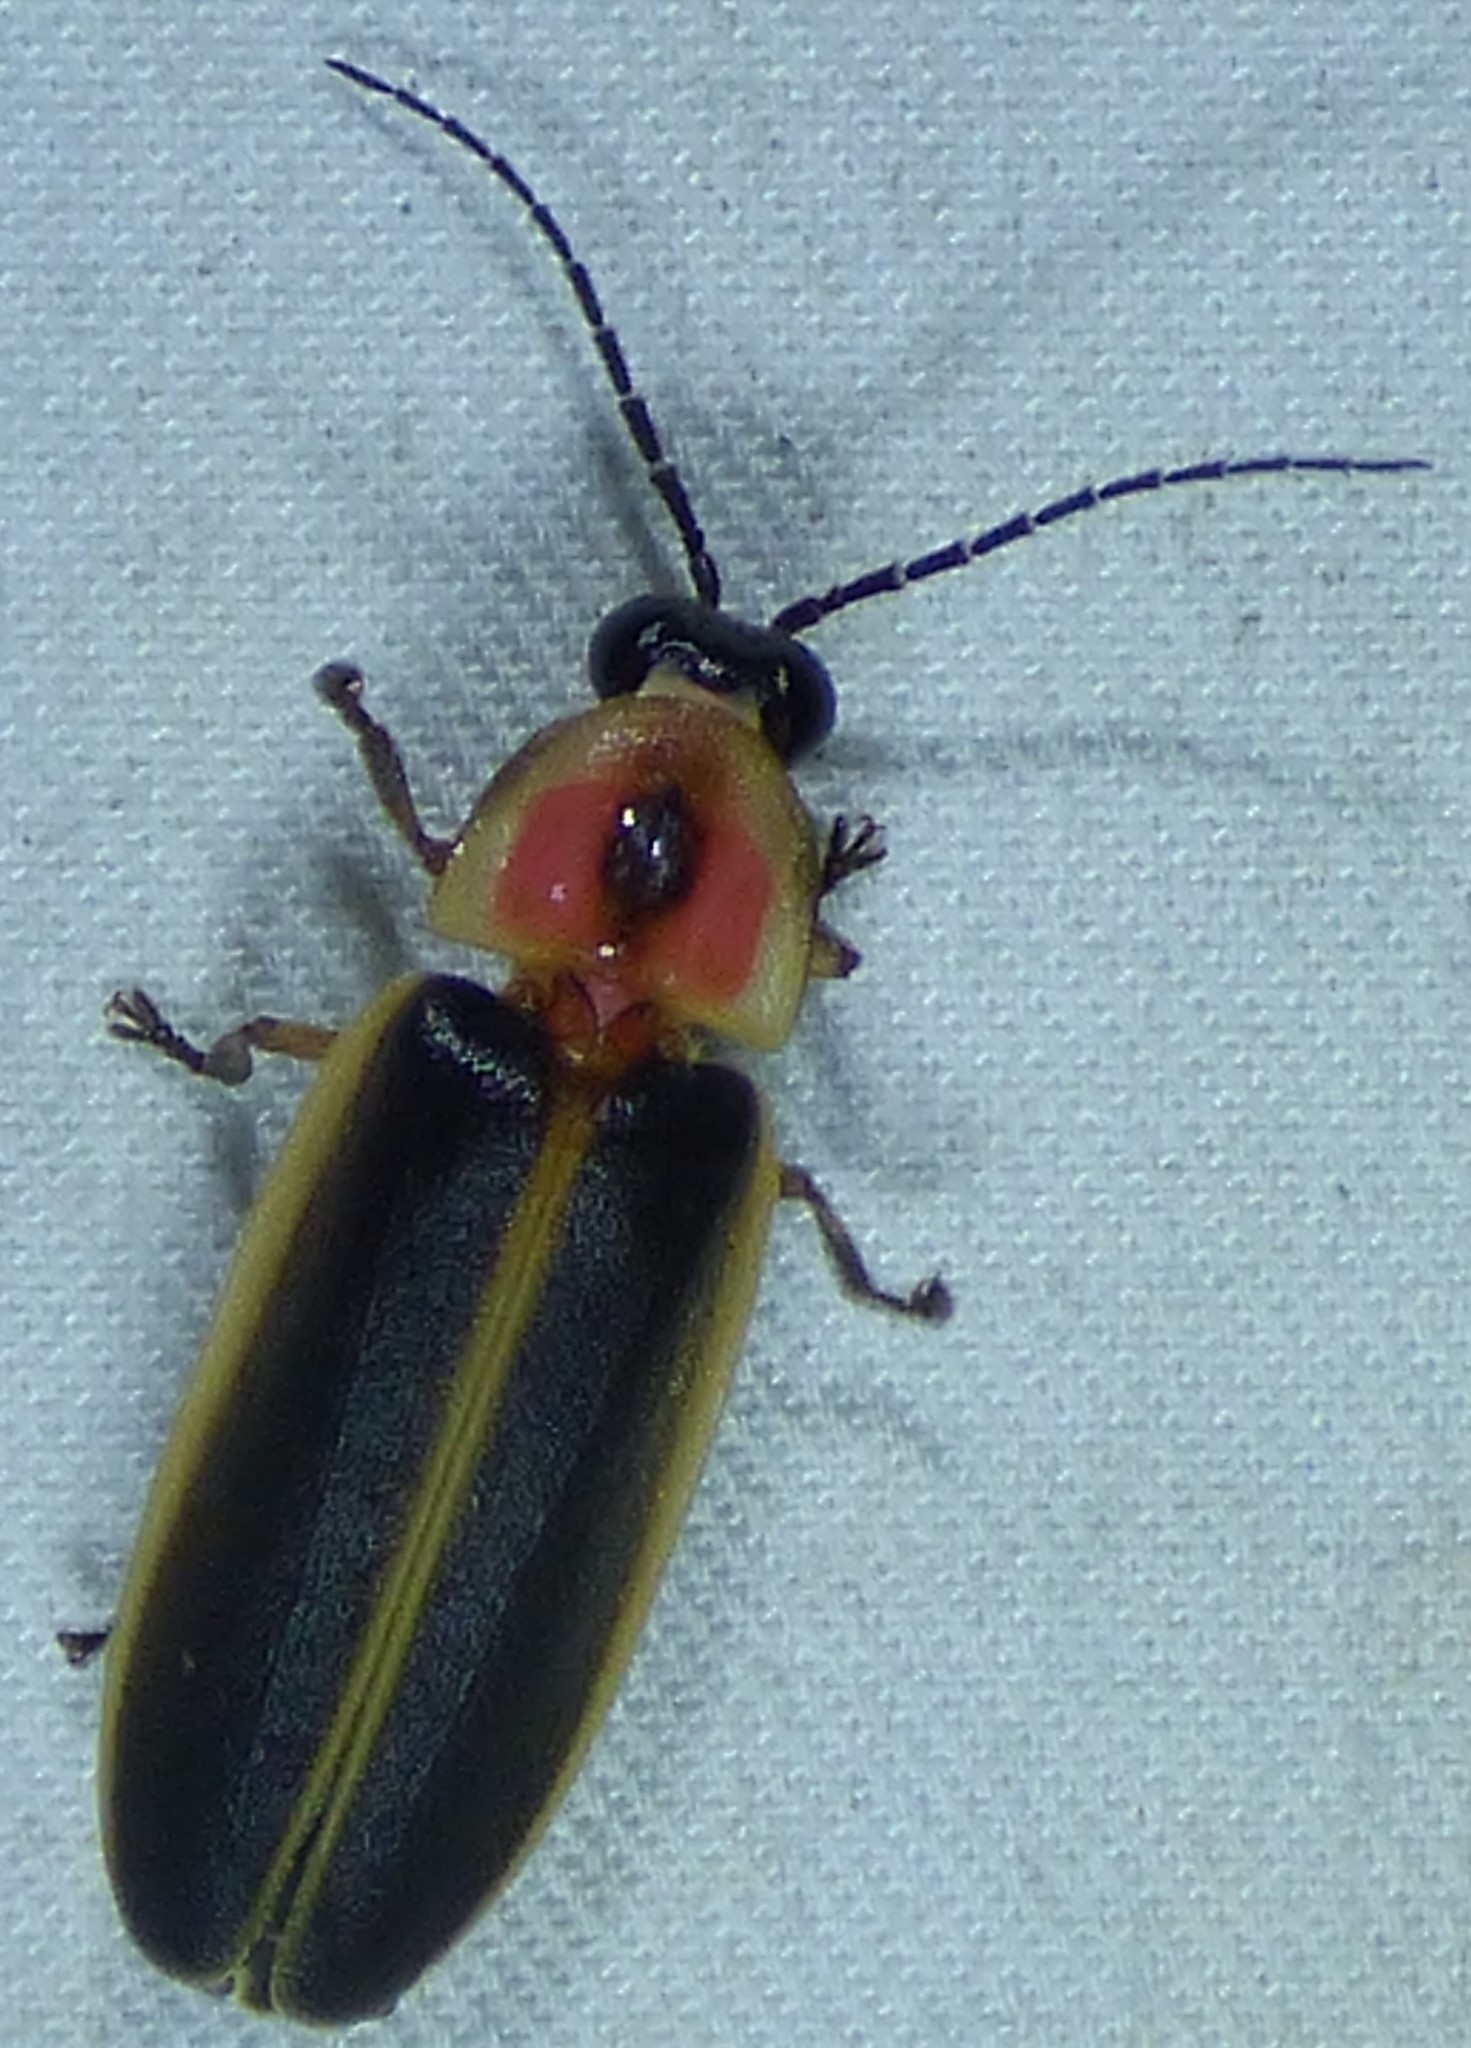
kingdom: Animalia
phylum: Arthropoda
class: Insecta
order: Coleoptera
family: Lampyridae
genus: Photinus
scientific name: Photinus pyralis
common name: Big dipper firefly
